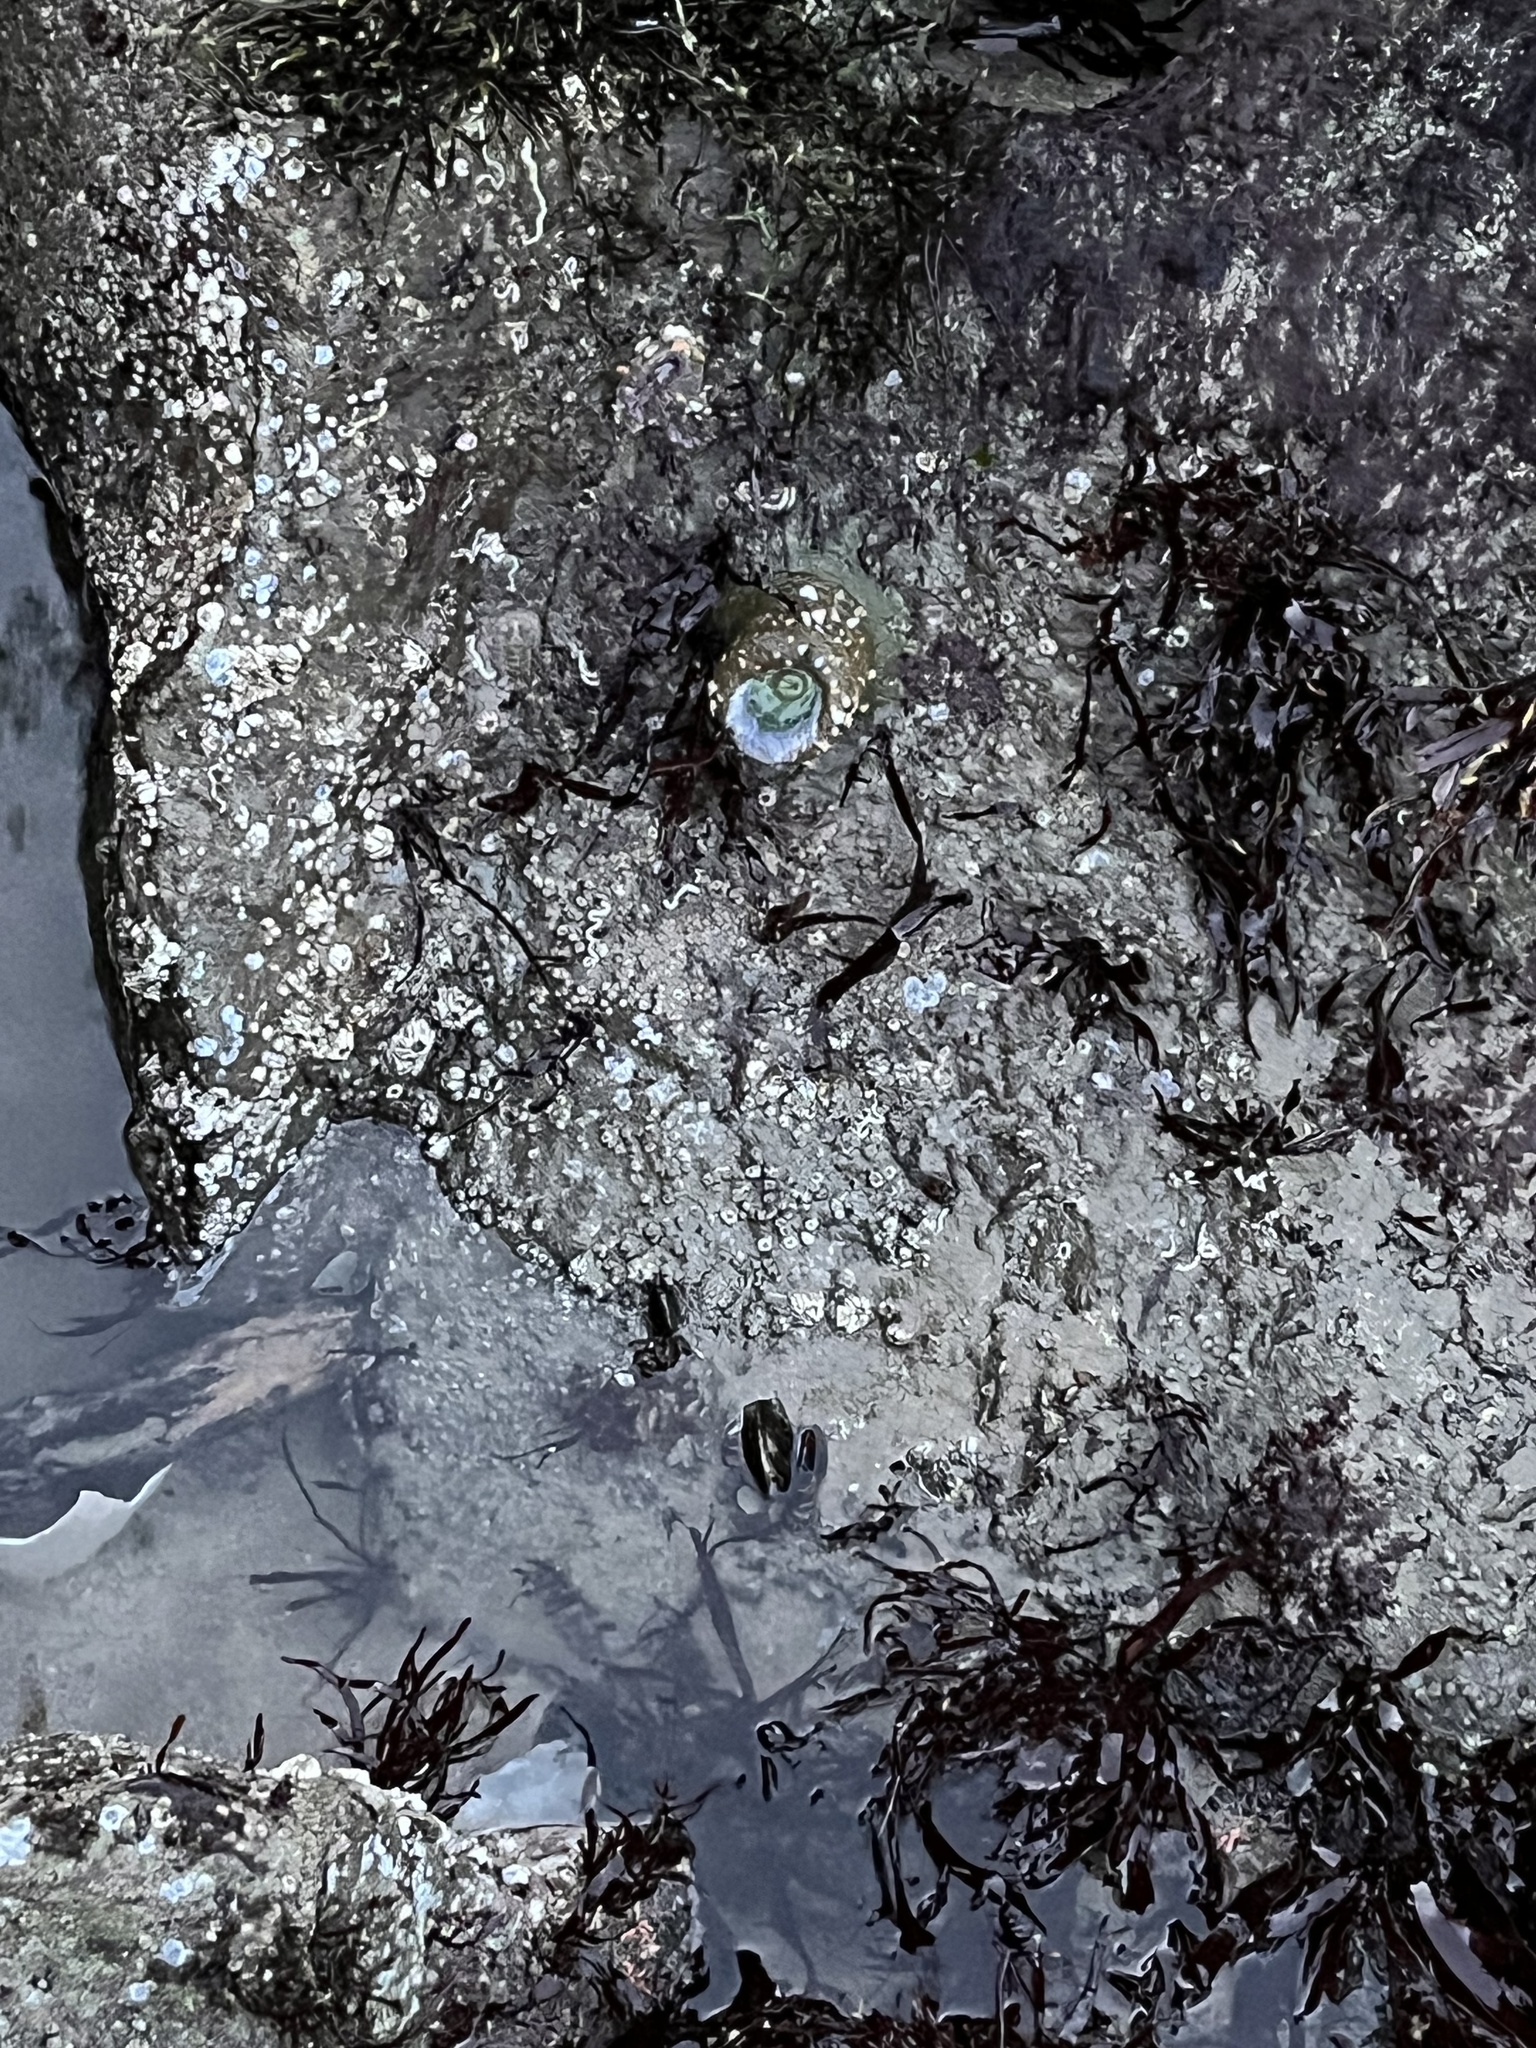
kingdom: Animalia
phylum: Cnidaria
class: Anthozoa
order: Actiniaria
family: Actiniidae
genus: Anthopleura
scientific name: Anthopleura xanthogrammica
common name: Giant green anemone
